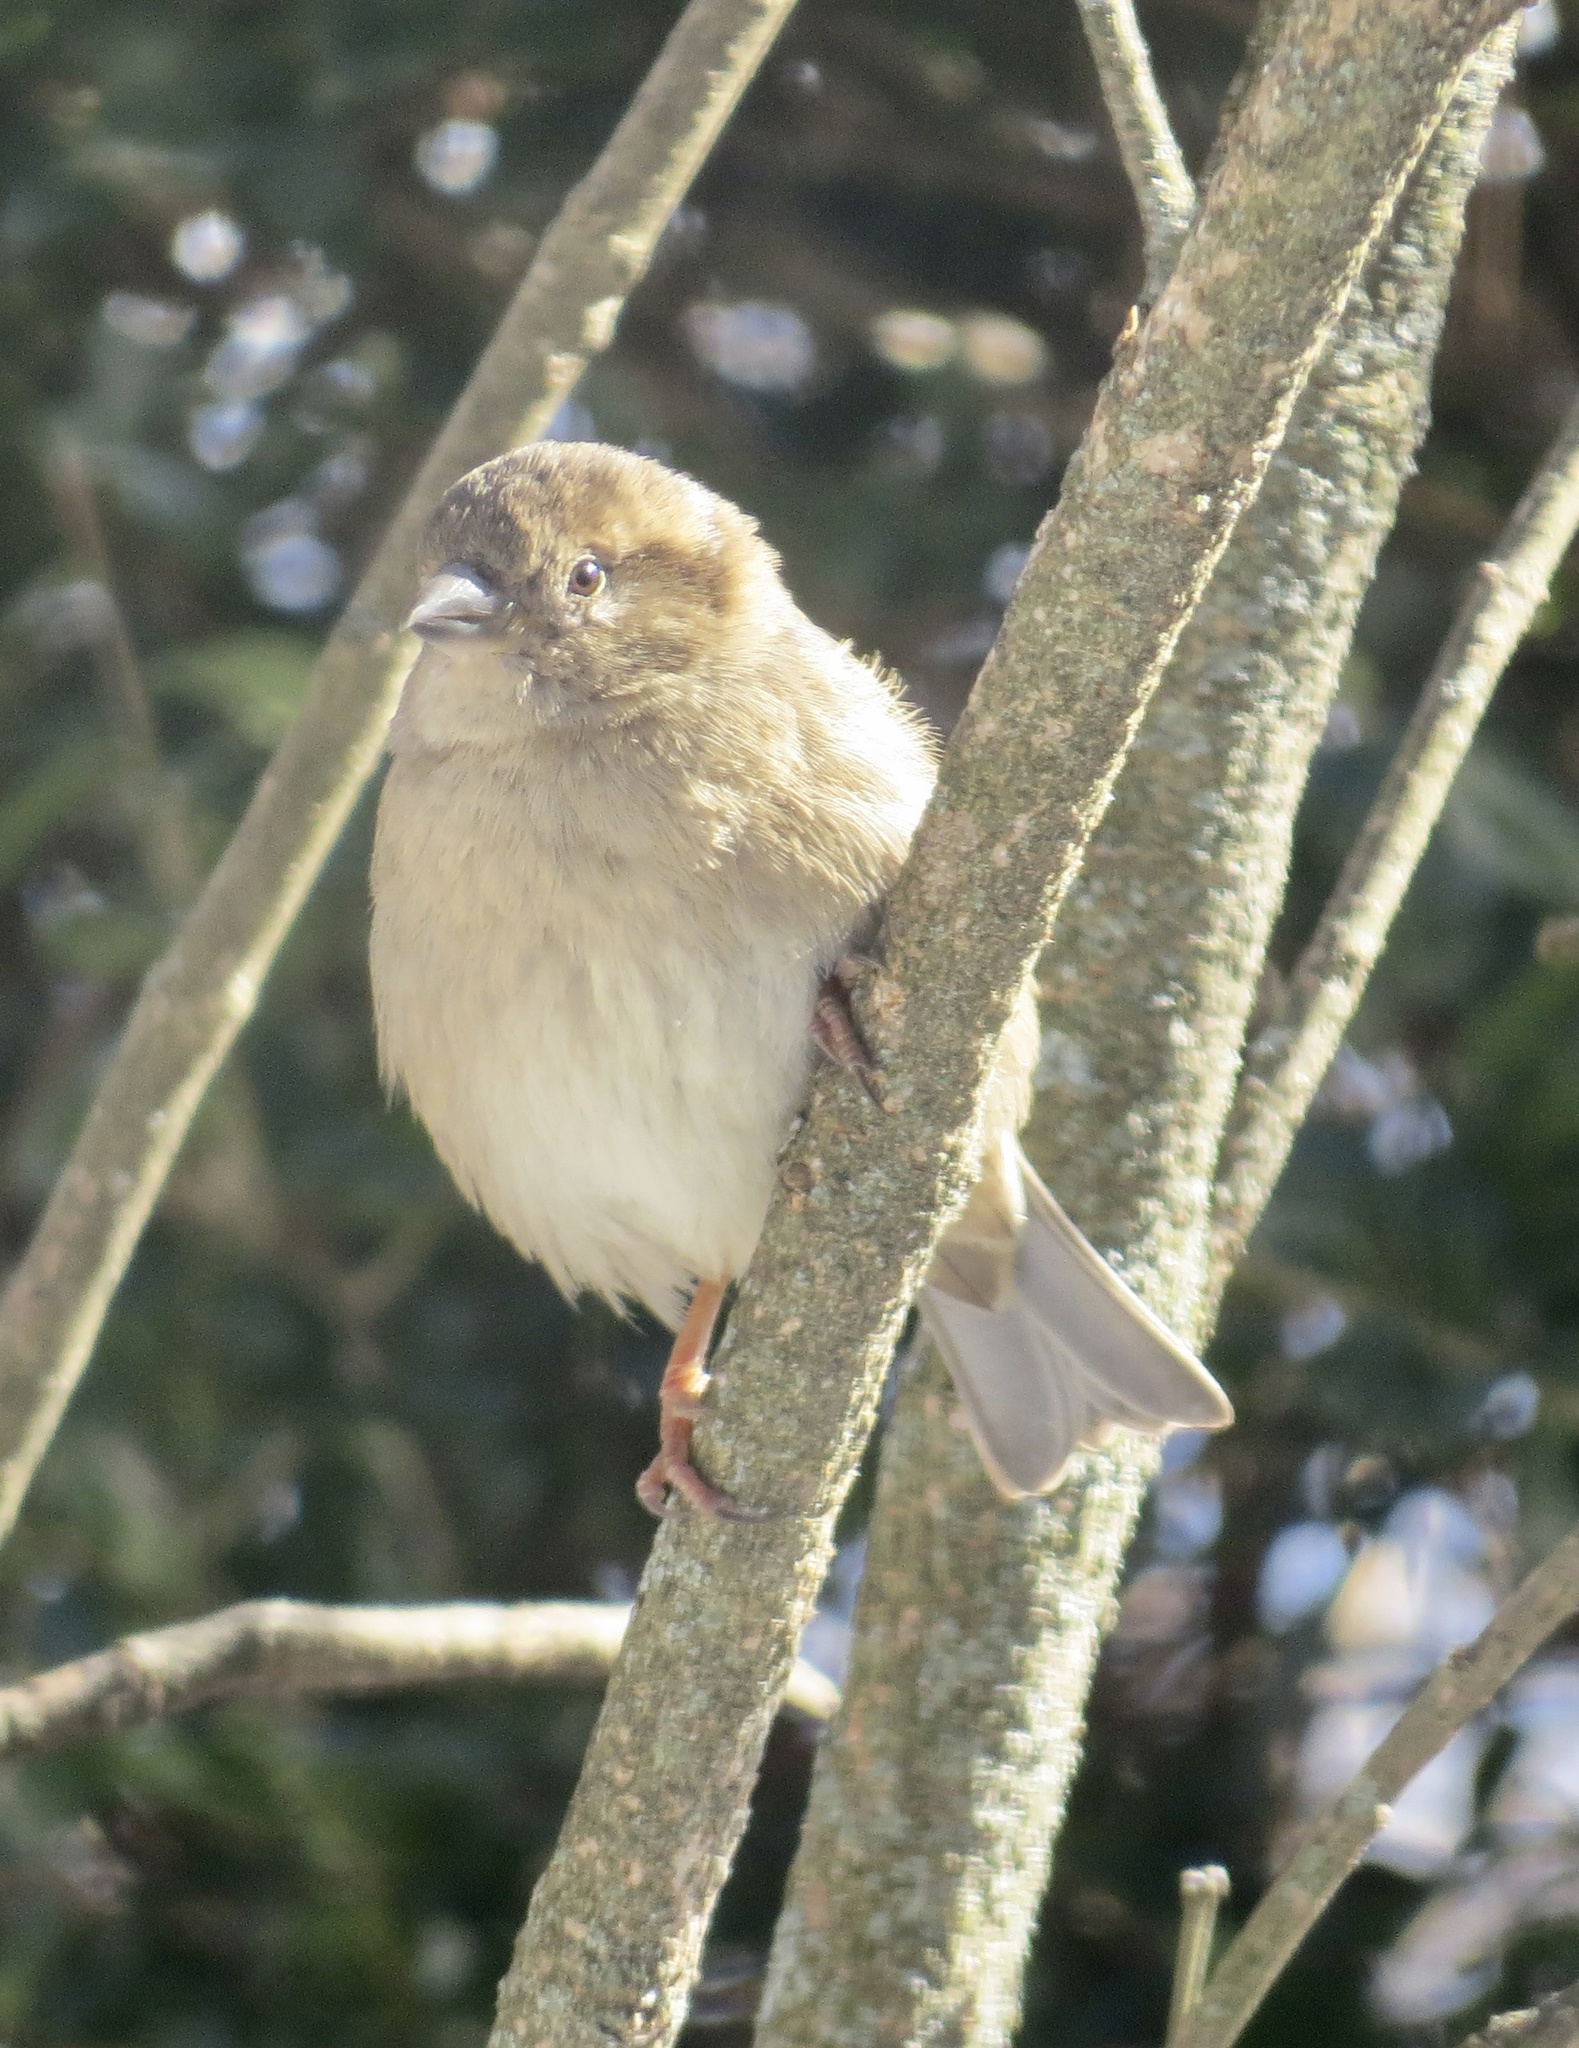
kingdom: Animalia
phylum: Chordata
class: Aves
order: Passeriformes
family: Passeridae
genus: Passer
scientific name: Passer domesticus
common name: House sparrow
